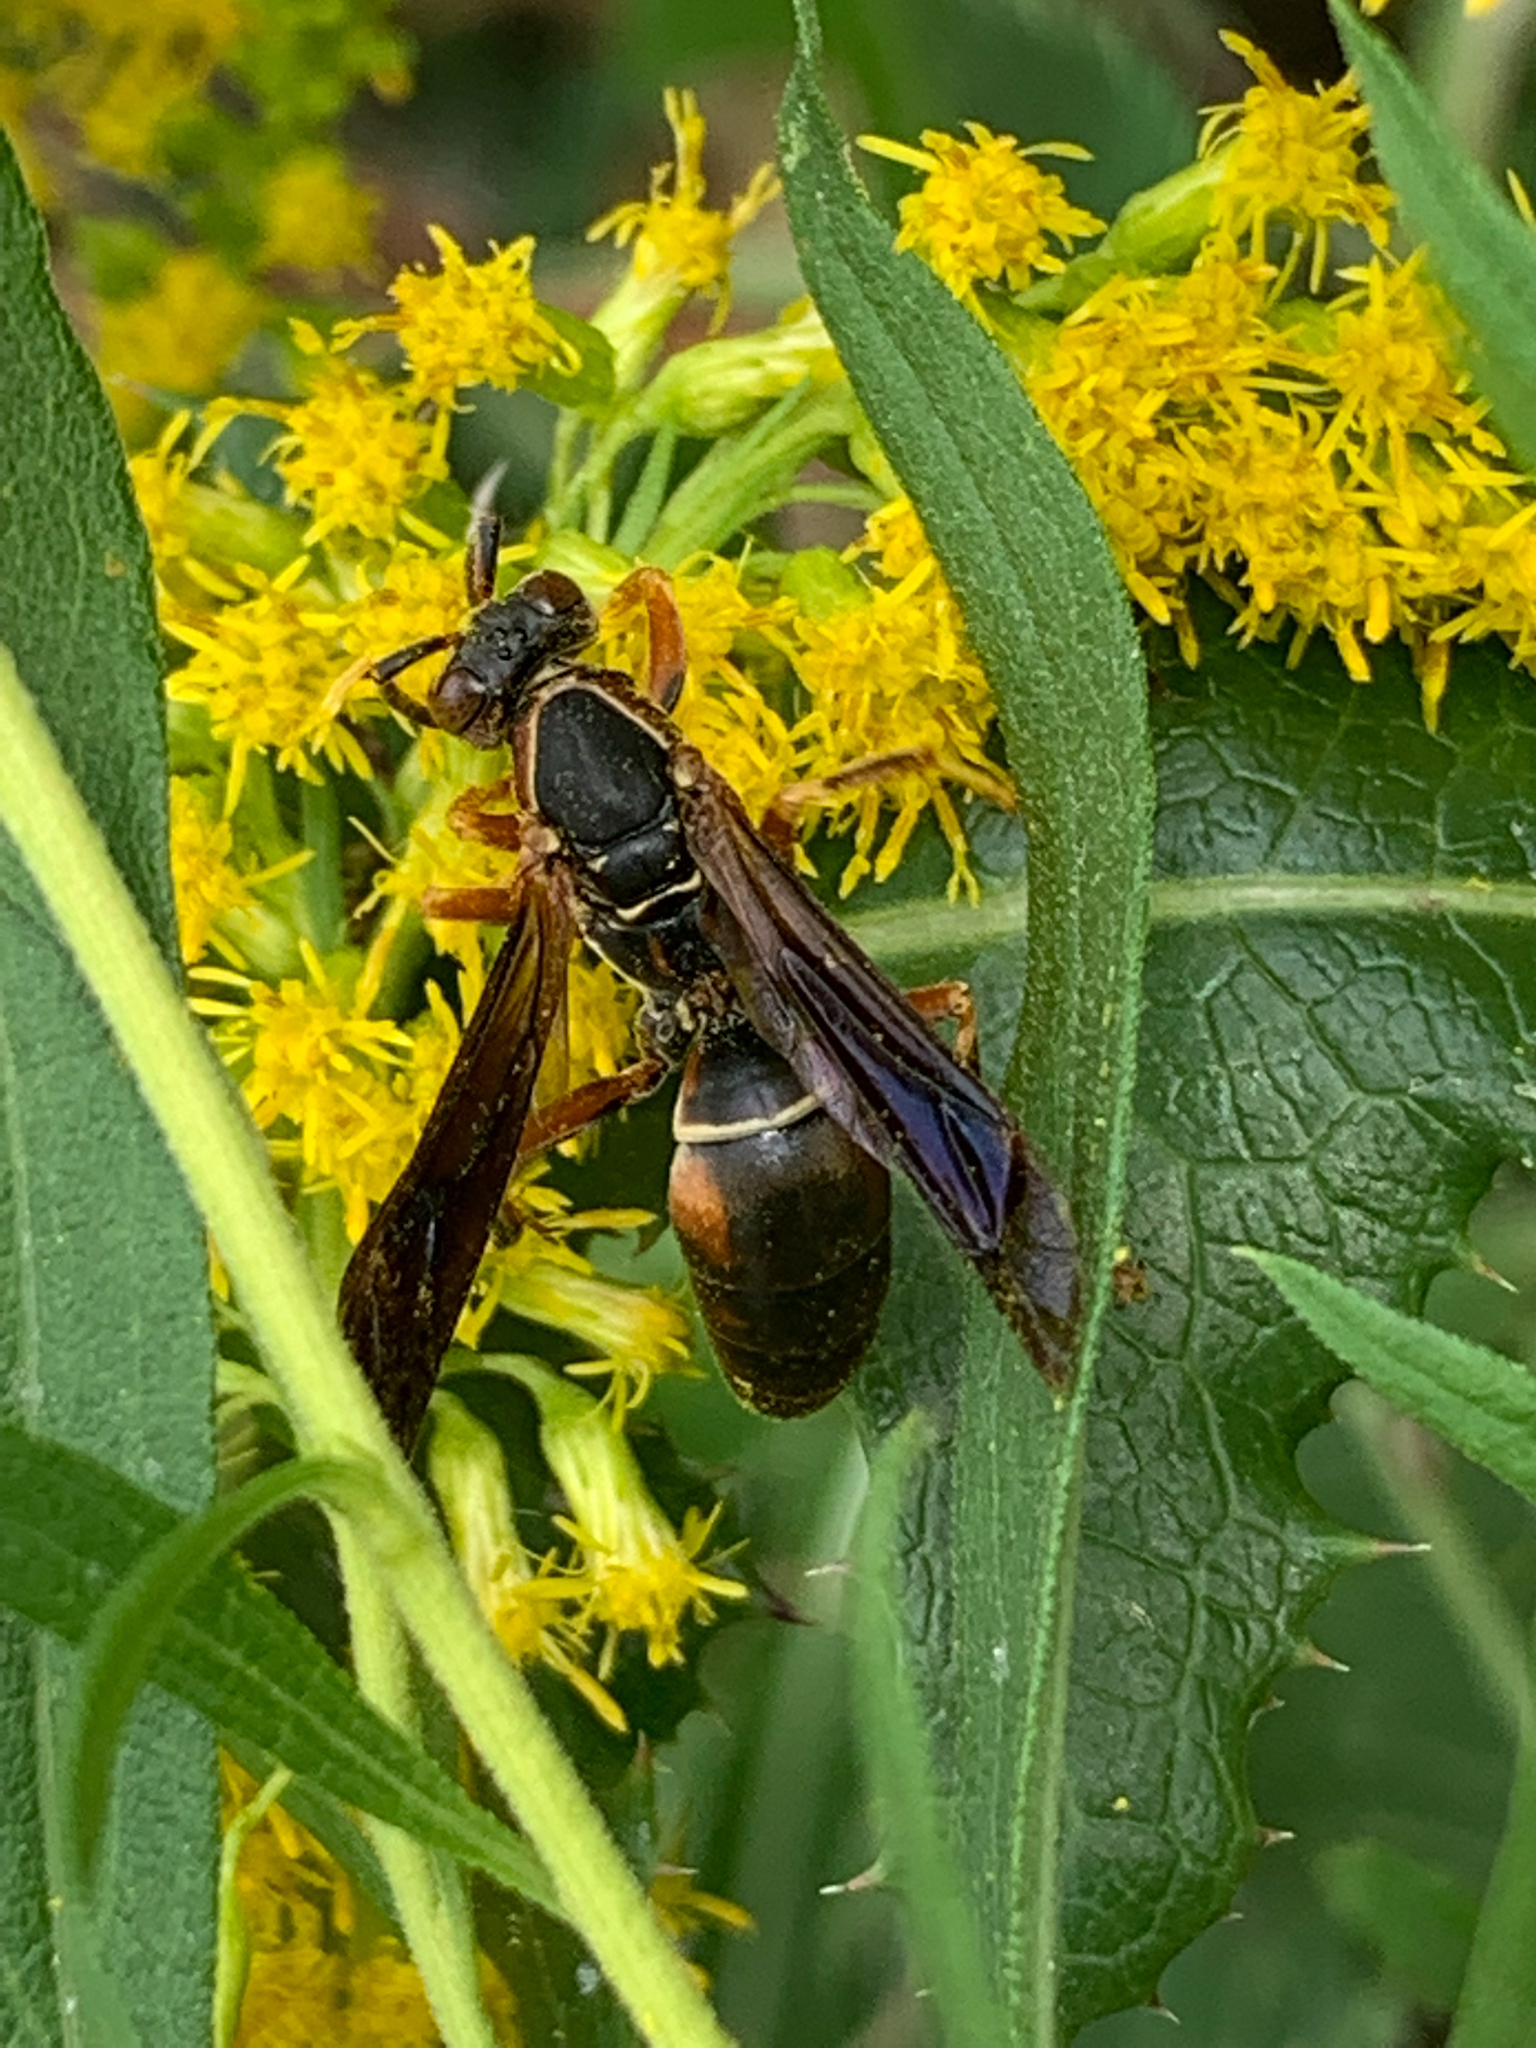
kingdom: Animalia
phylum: Arthropoda
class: Insecta
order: Hymenoptera
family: Eumenidae
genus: Polistes
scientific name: Polistes fuscatus
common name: Dark paper wasp
